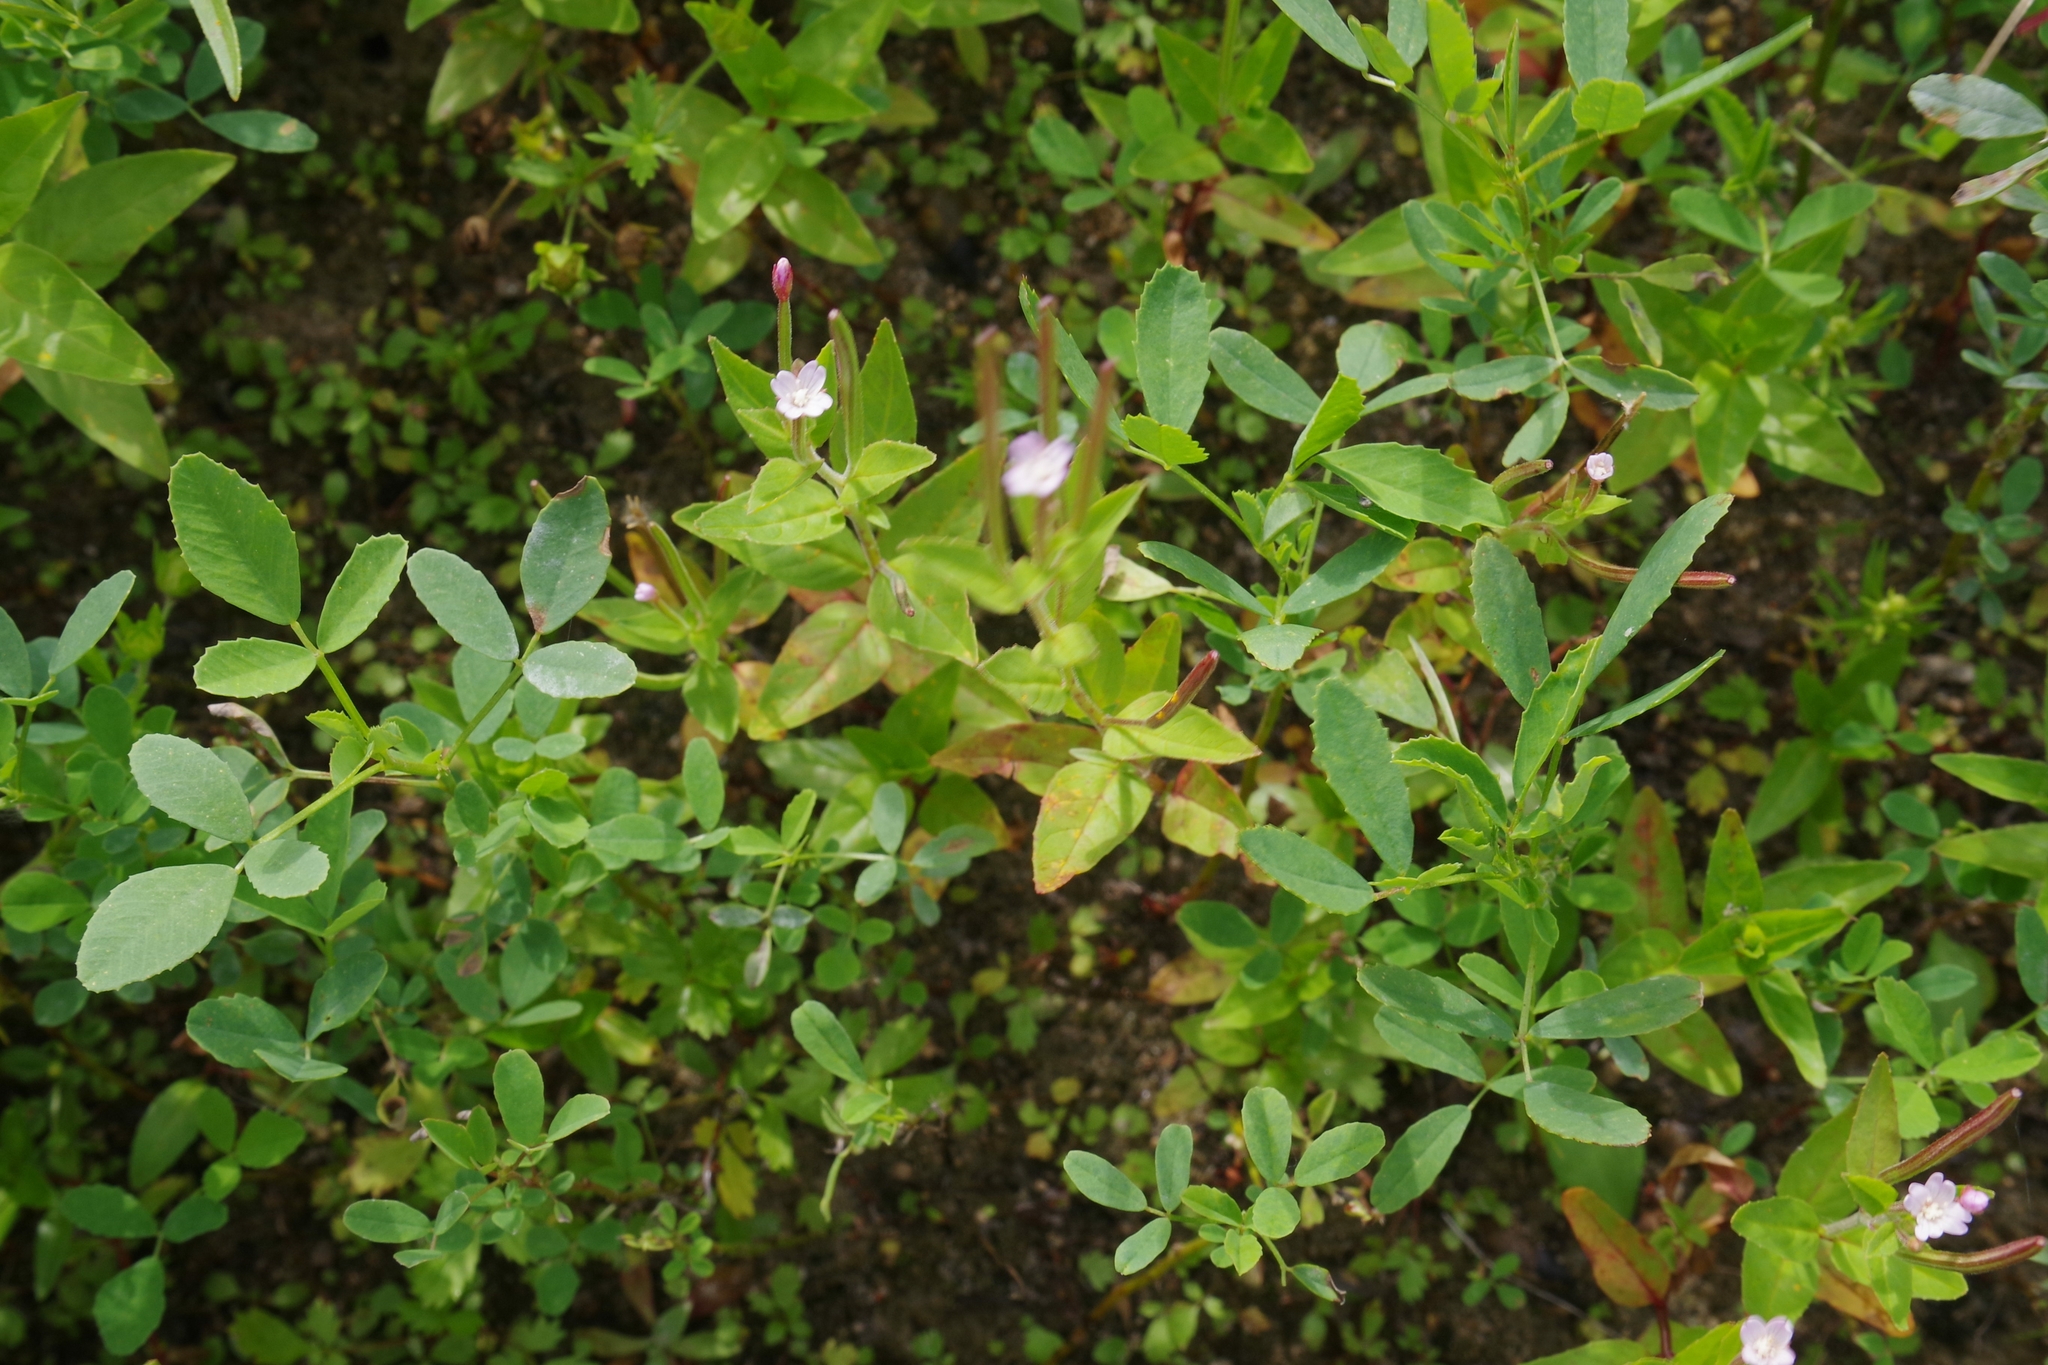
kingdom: Plantae
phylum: Tracheophyta
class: Magnoliopsida
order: Myrtales
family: Onagraceae
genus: Epilobium
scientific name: Epilobium ciliatum
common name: American willowherb
